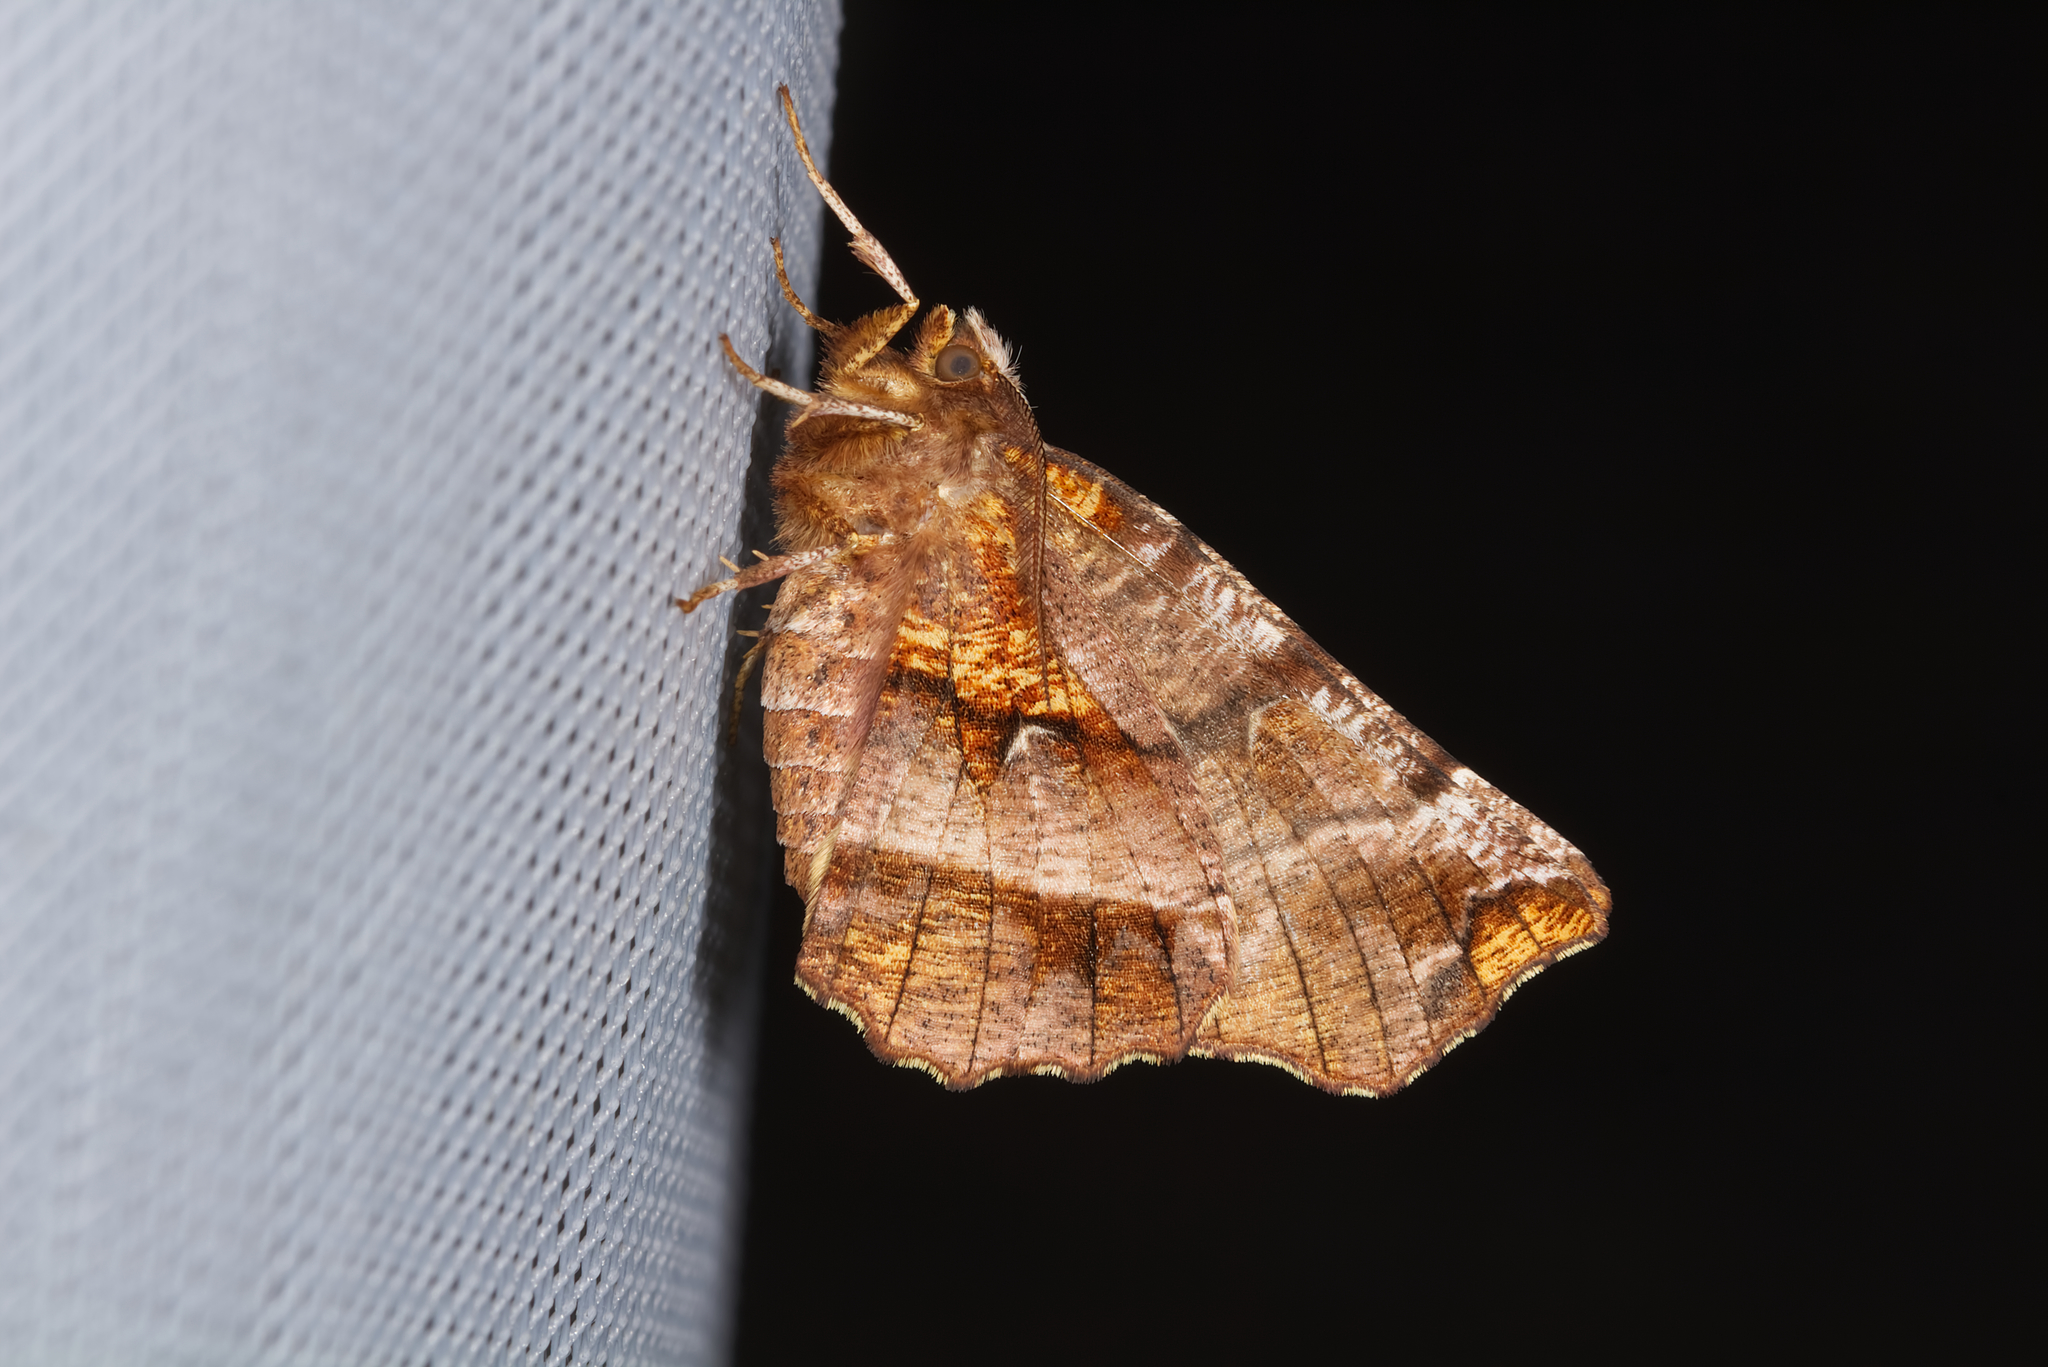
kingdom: Animalia
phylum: Arthropoda
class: Insecta
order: Lepidoptera
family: Geometridae
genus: Selenia
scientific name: Selenia dentaria
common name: Early thorn
